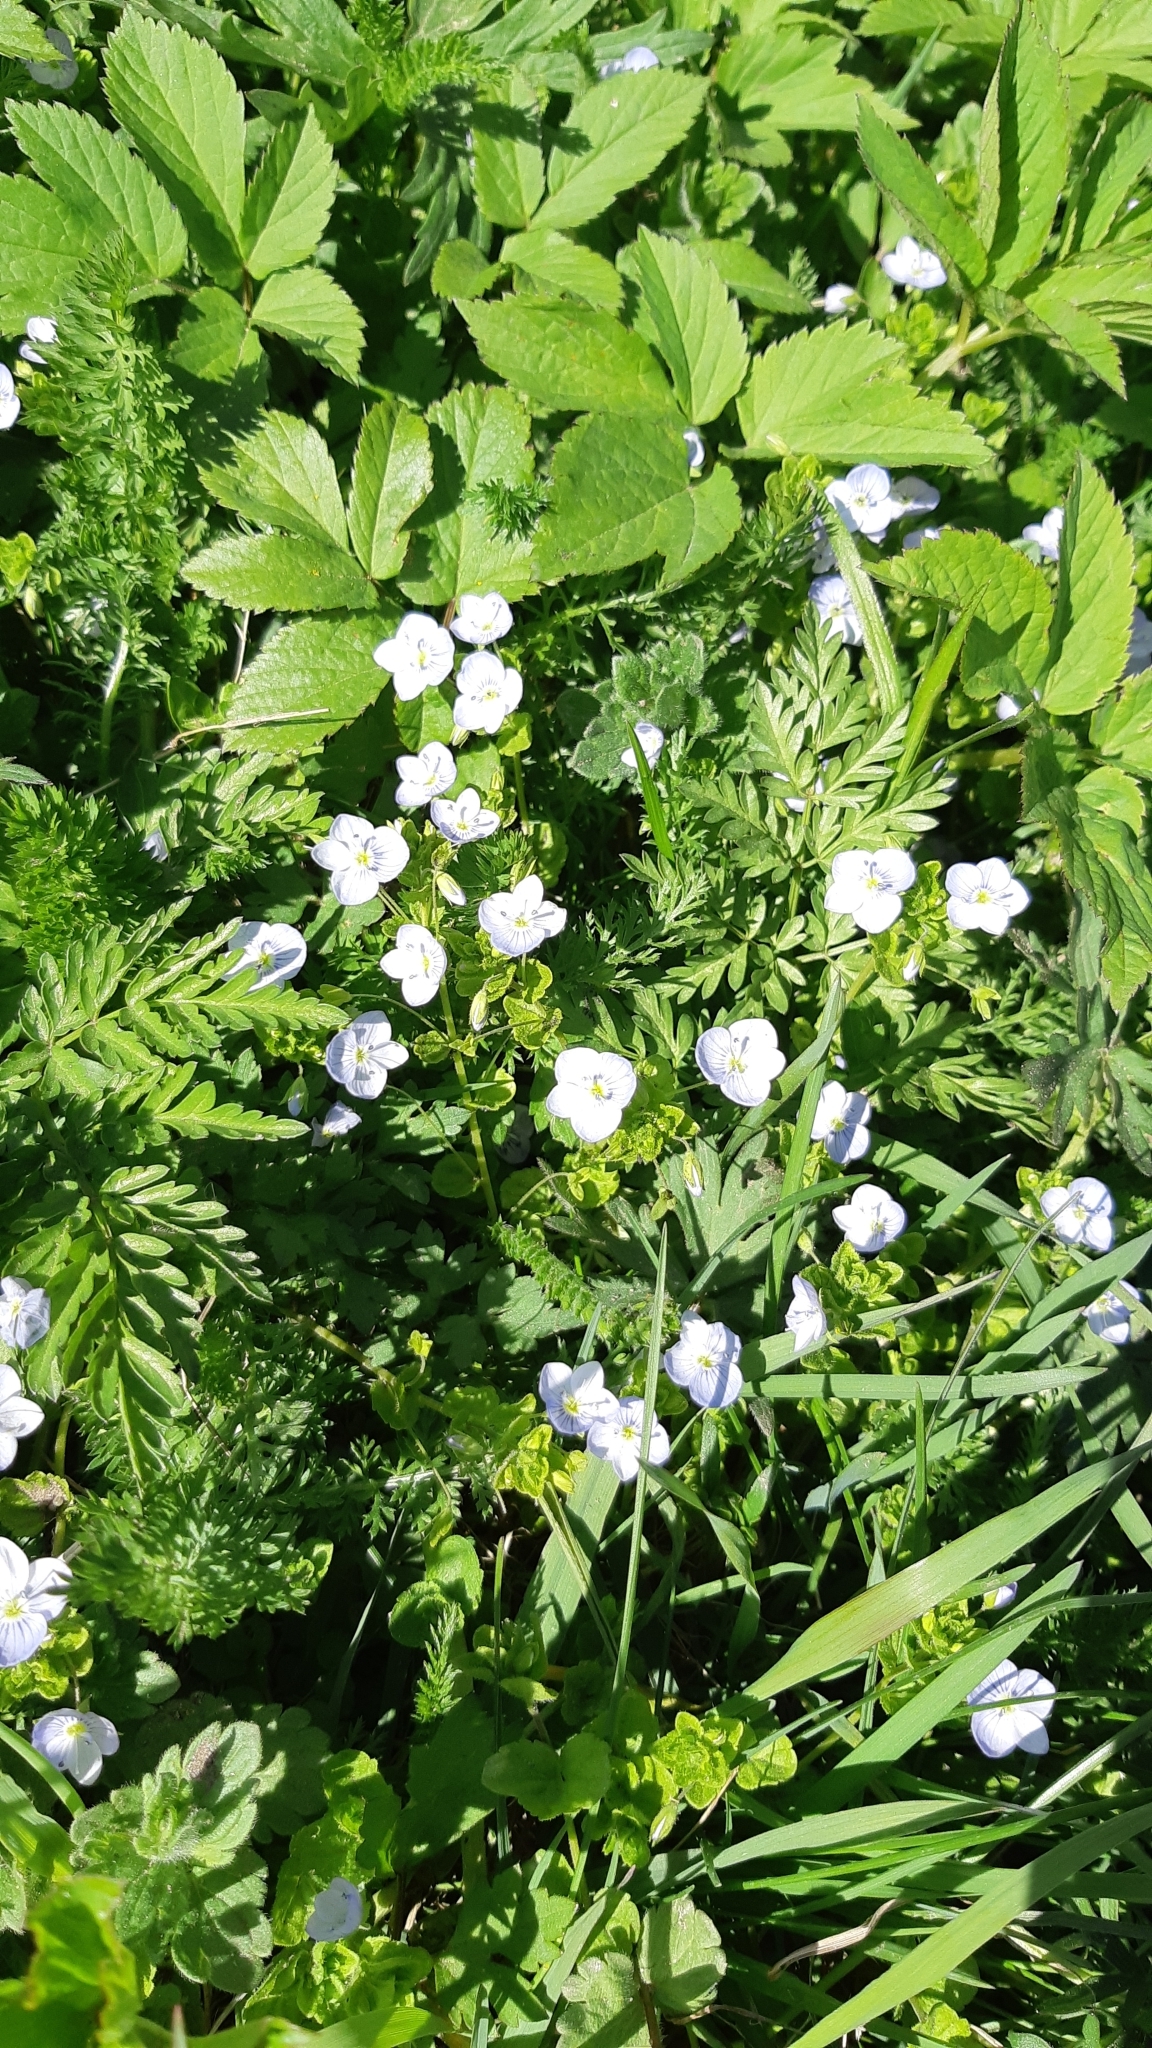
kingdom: Plantae
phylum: Tracheophyta
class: Magnoliopsida
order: Lamiales
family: Plantaginaceae
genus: Veronica
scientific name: Veronica filiformis
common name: Slender speedwell
